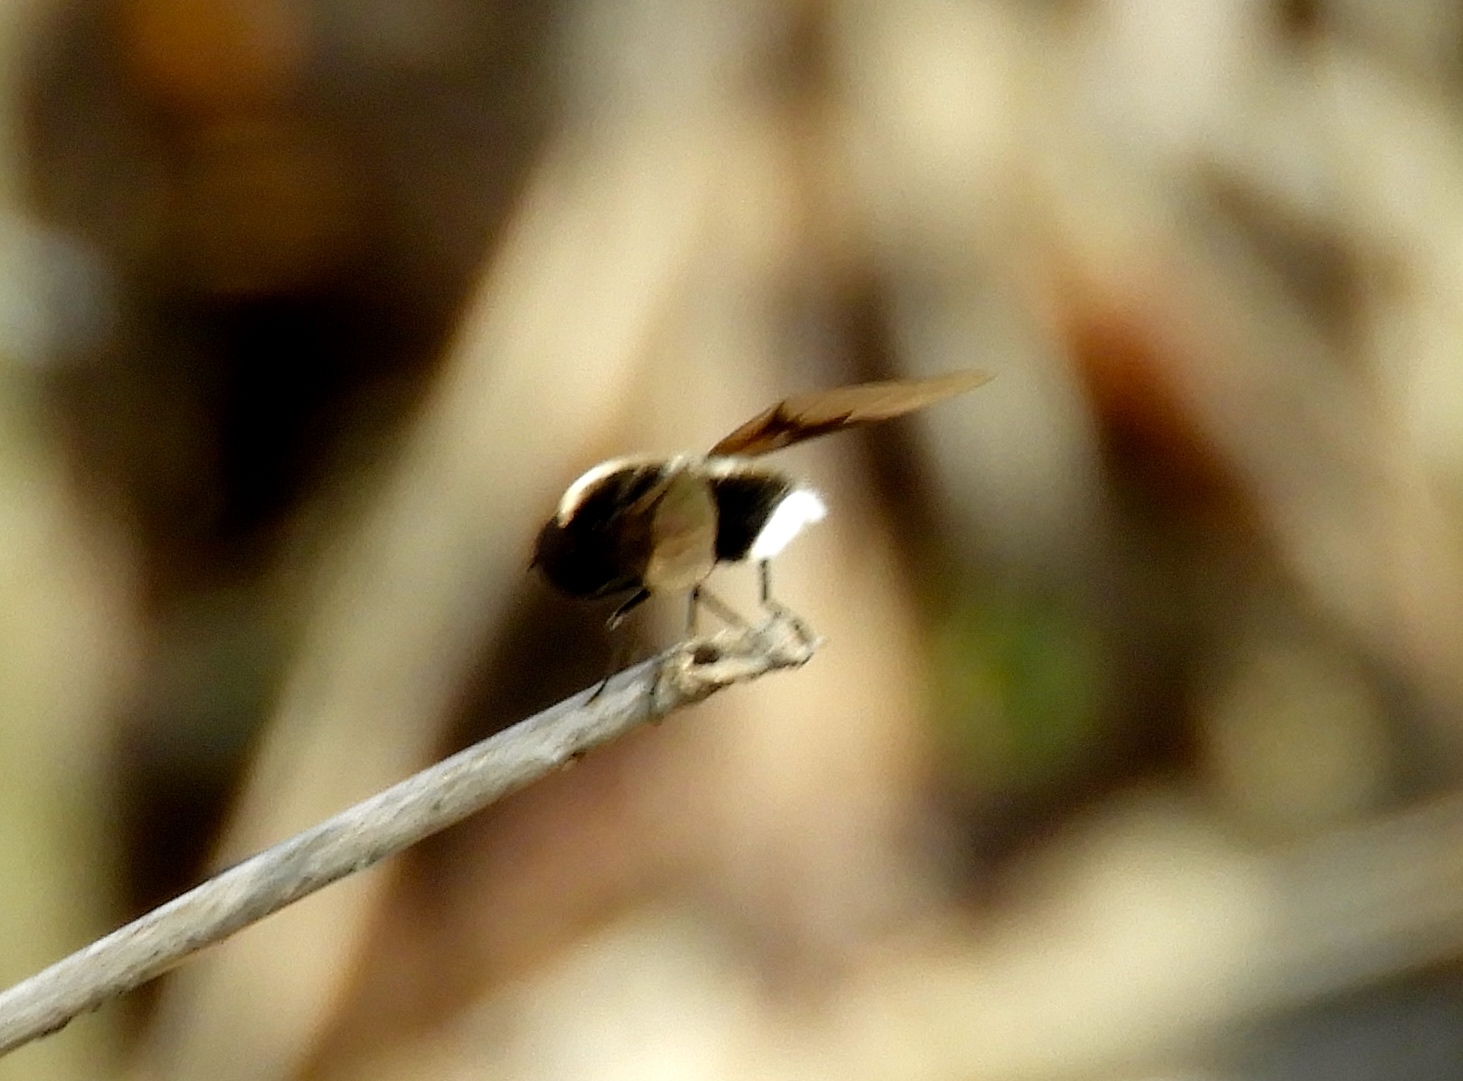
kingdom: Animalia
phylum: Arthropoda
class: Insecta
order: Diptera
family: Bombyliidae
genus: Ogcodocera
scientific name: Ogcodocera leucoprocta
